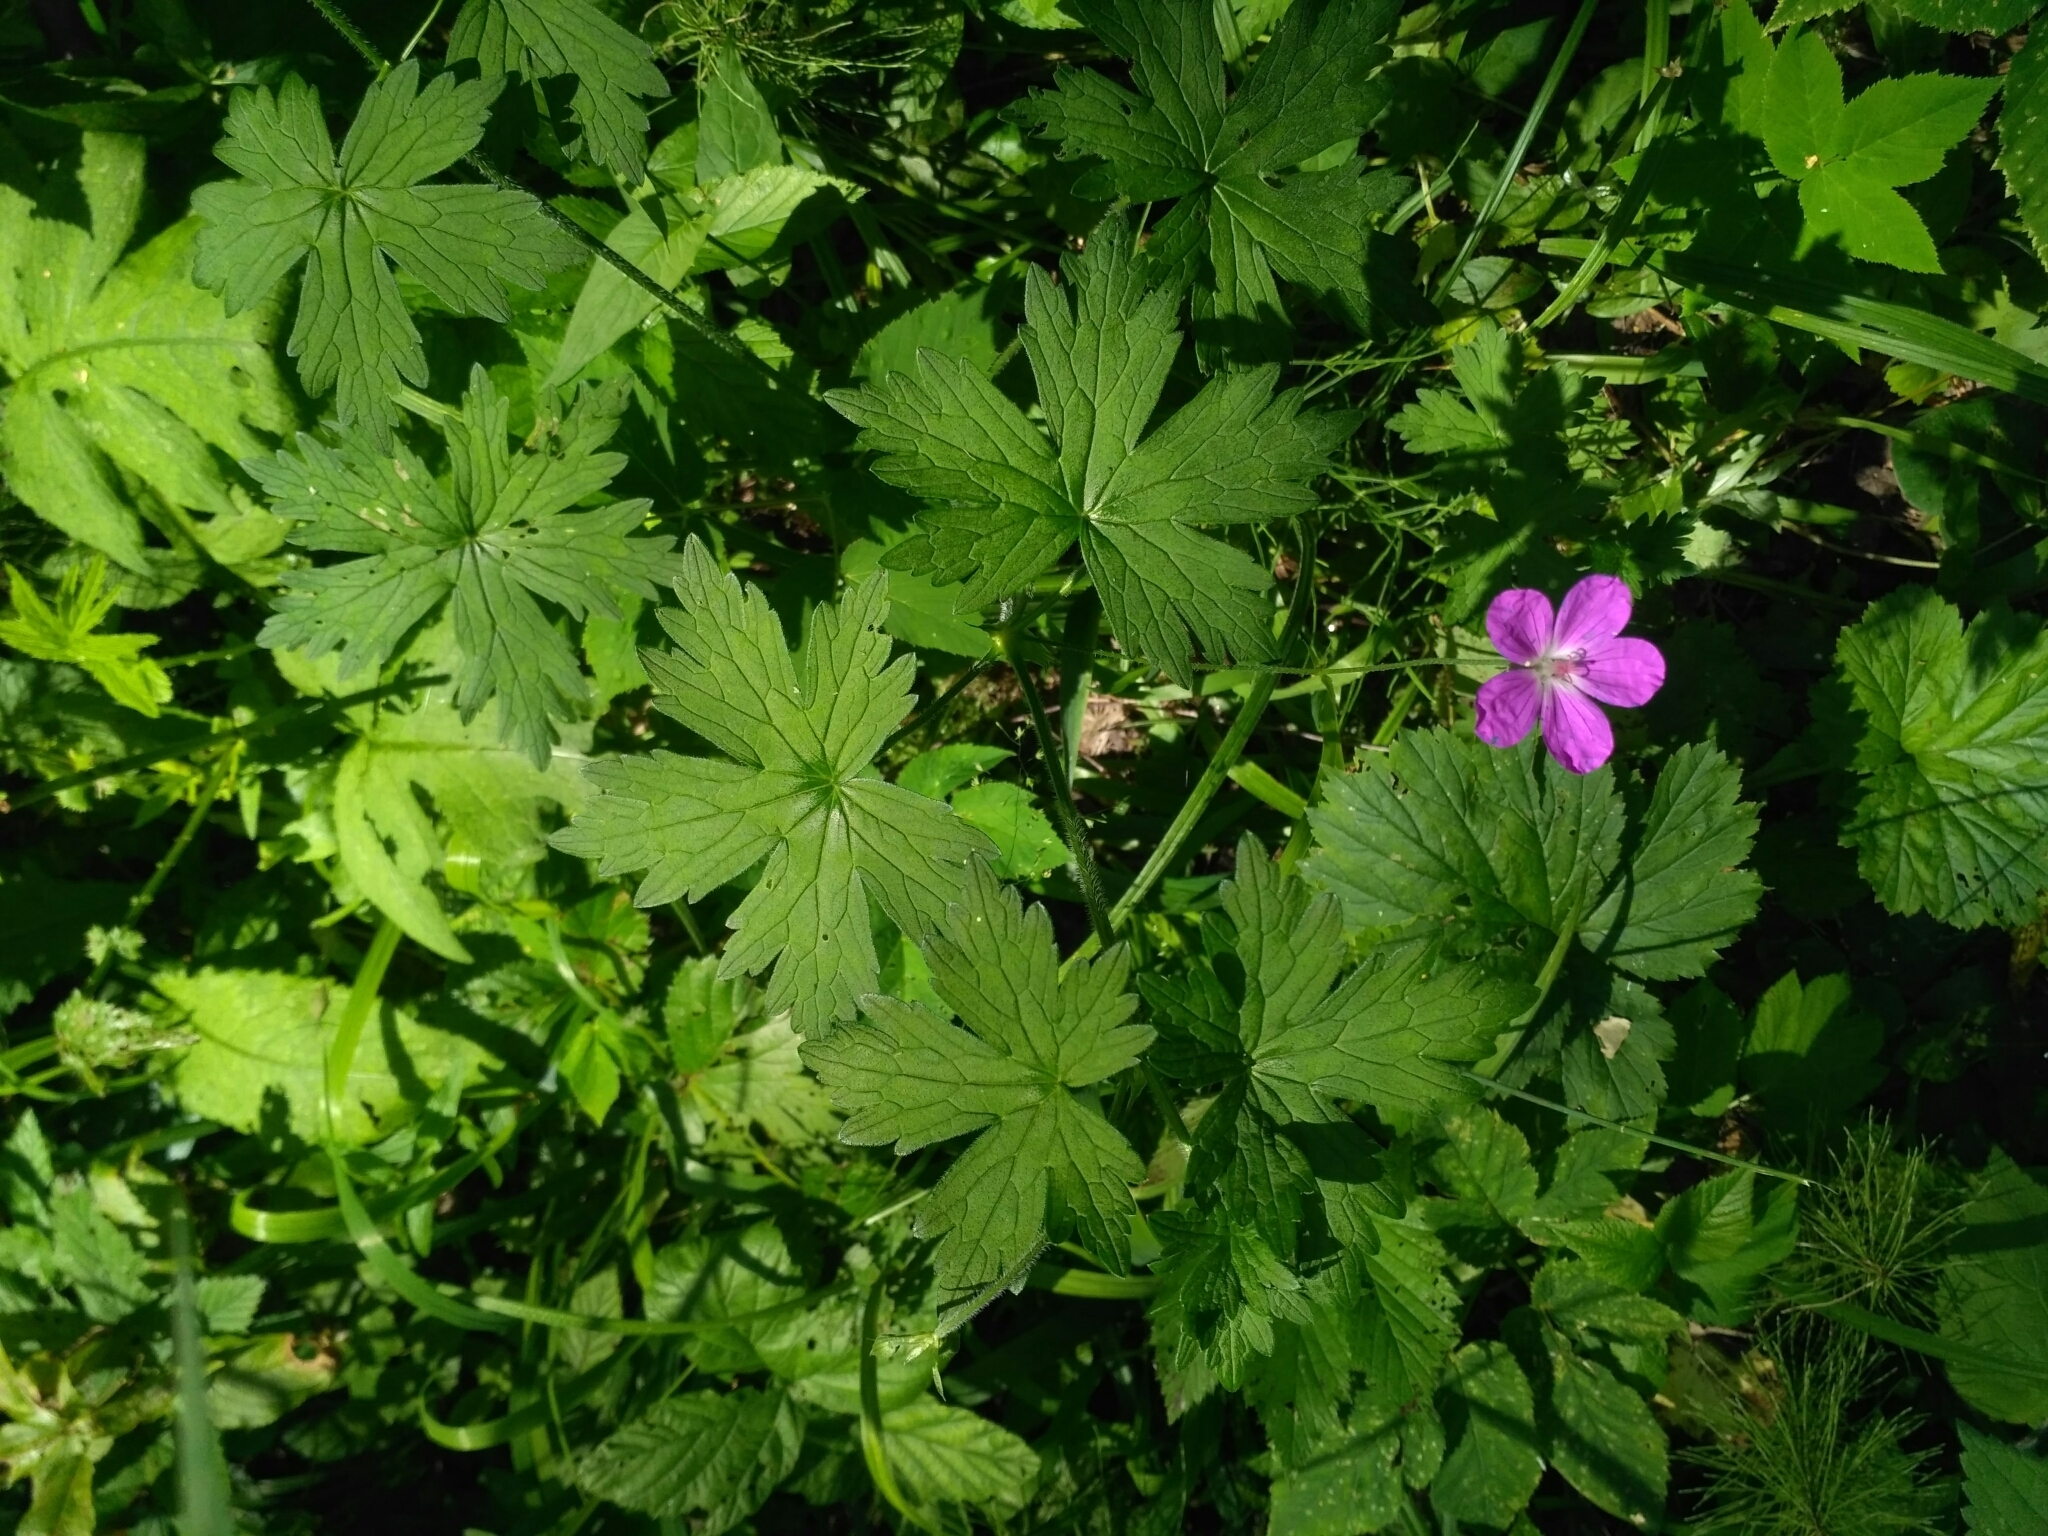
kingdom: Plantae
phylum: Tracheophyta
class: Magnoliopsida
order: Geraniales
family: Geraniaceae
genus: Geranium
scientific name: Geranium palustre
